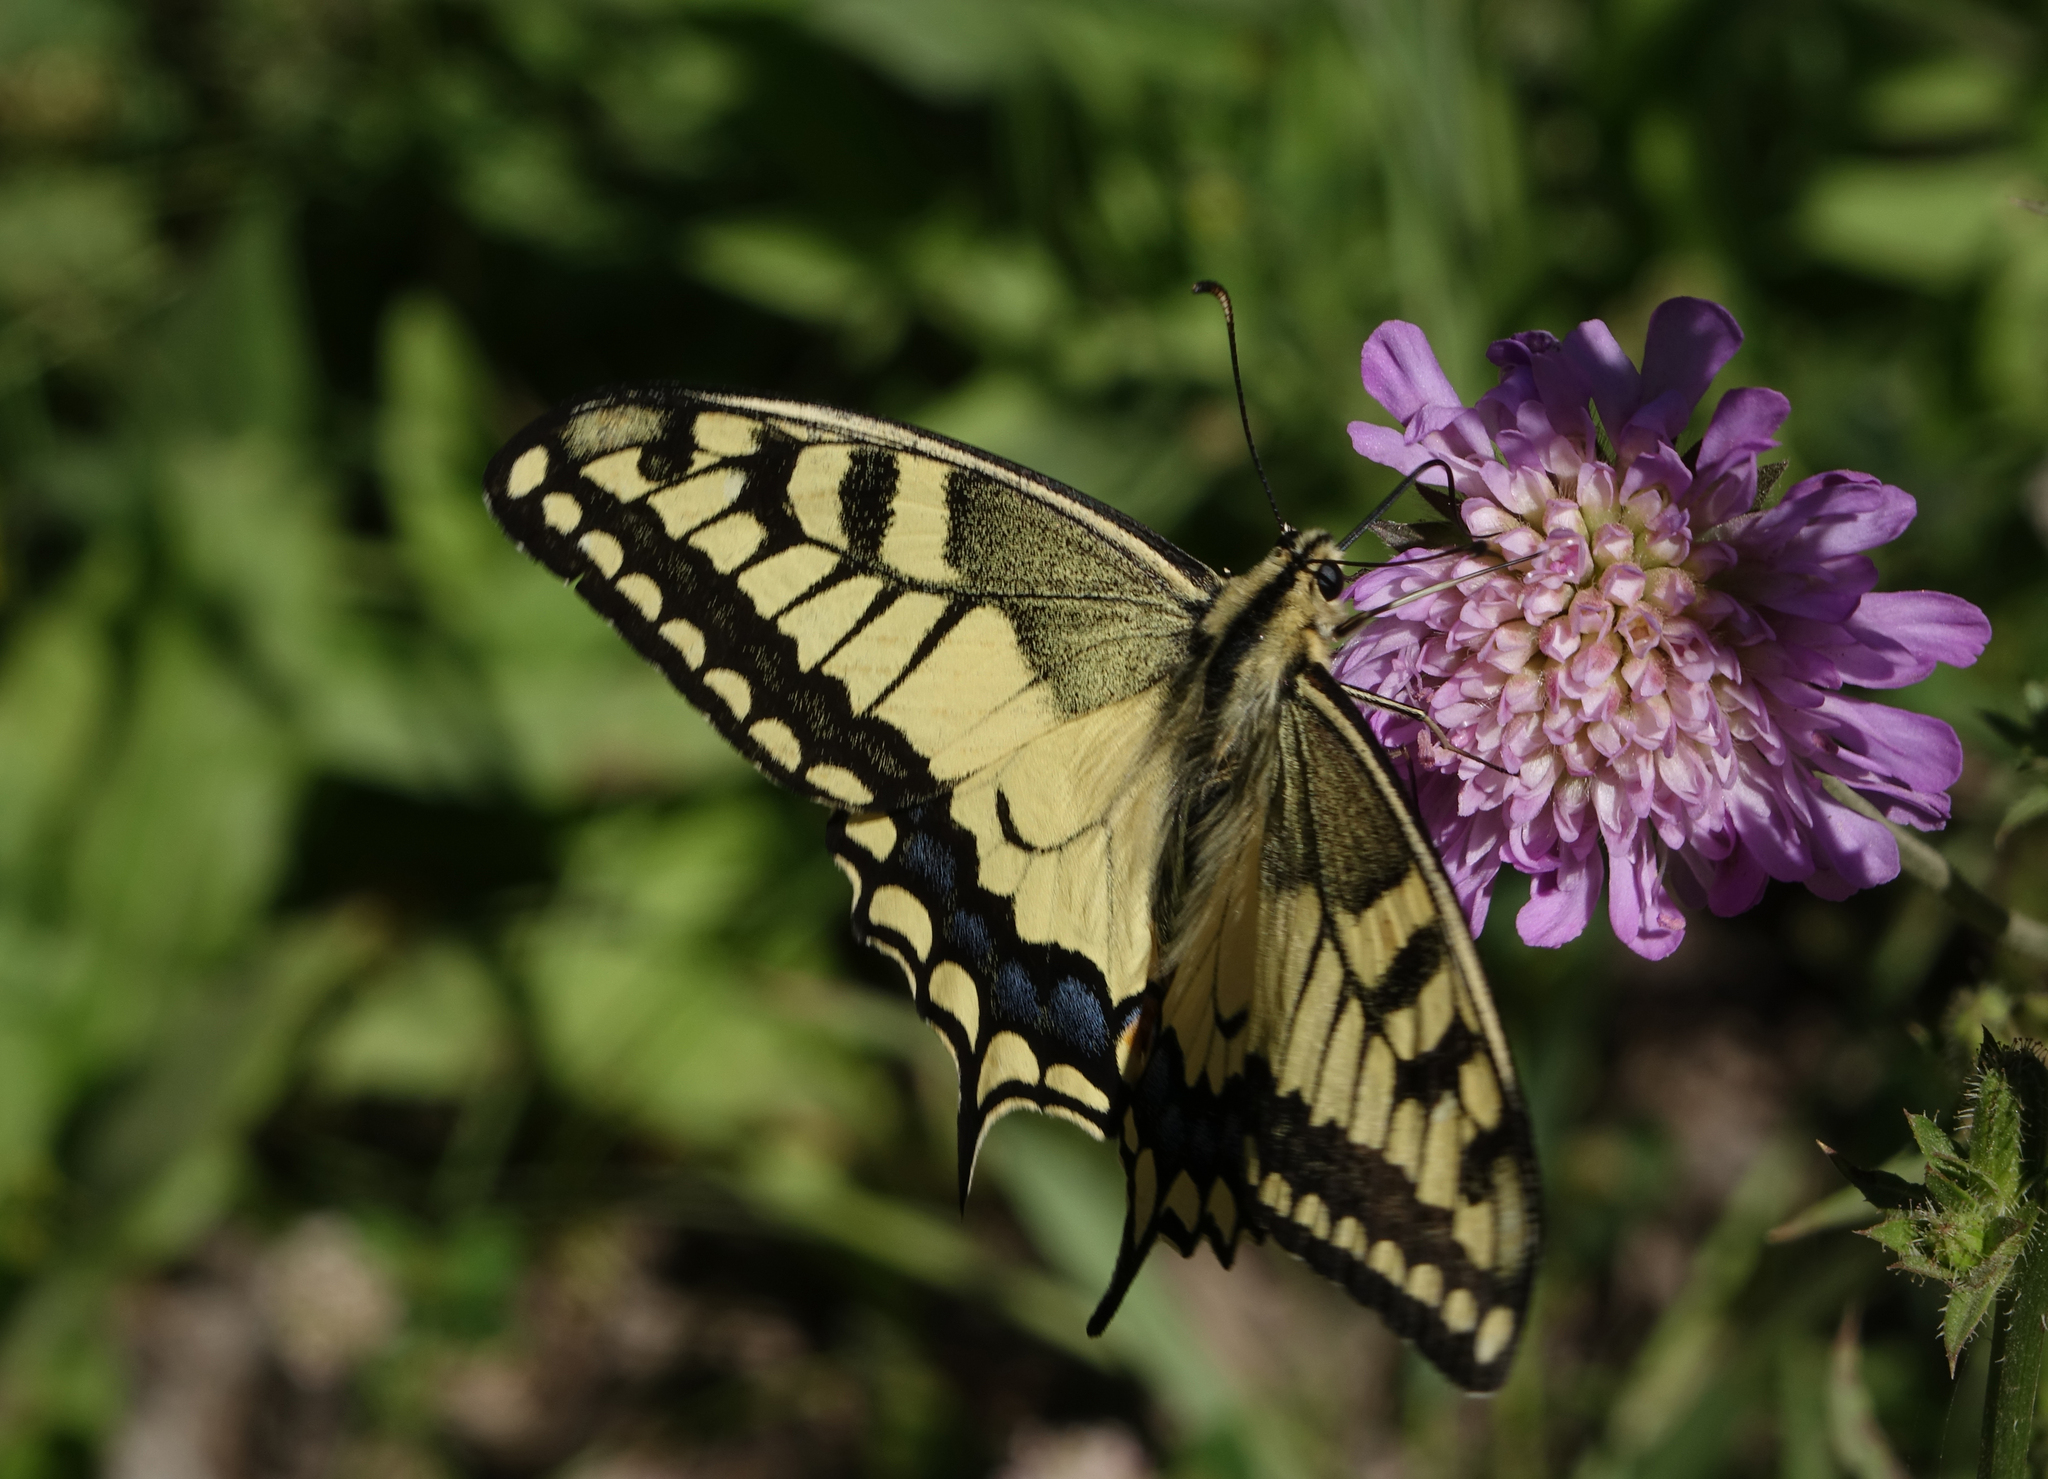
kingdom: Animalia
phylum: Arthropoda
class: Insecta
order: Lepidoptera
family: Papilionidae
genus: Papilio
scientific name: Papilio machaon
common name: Swallowtail
